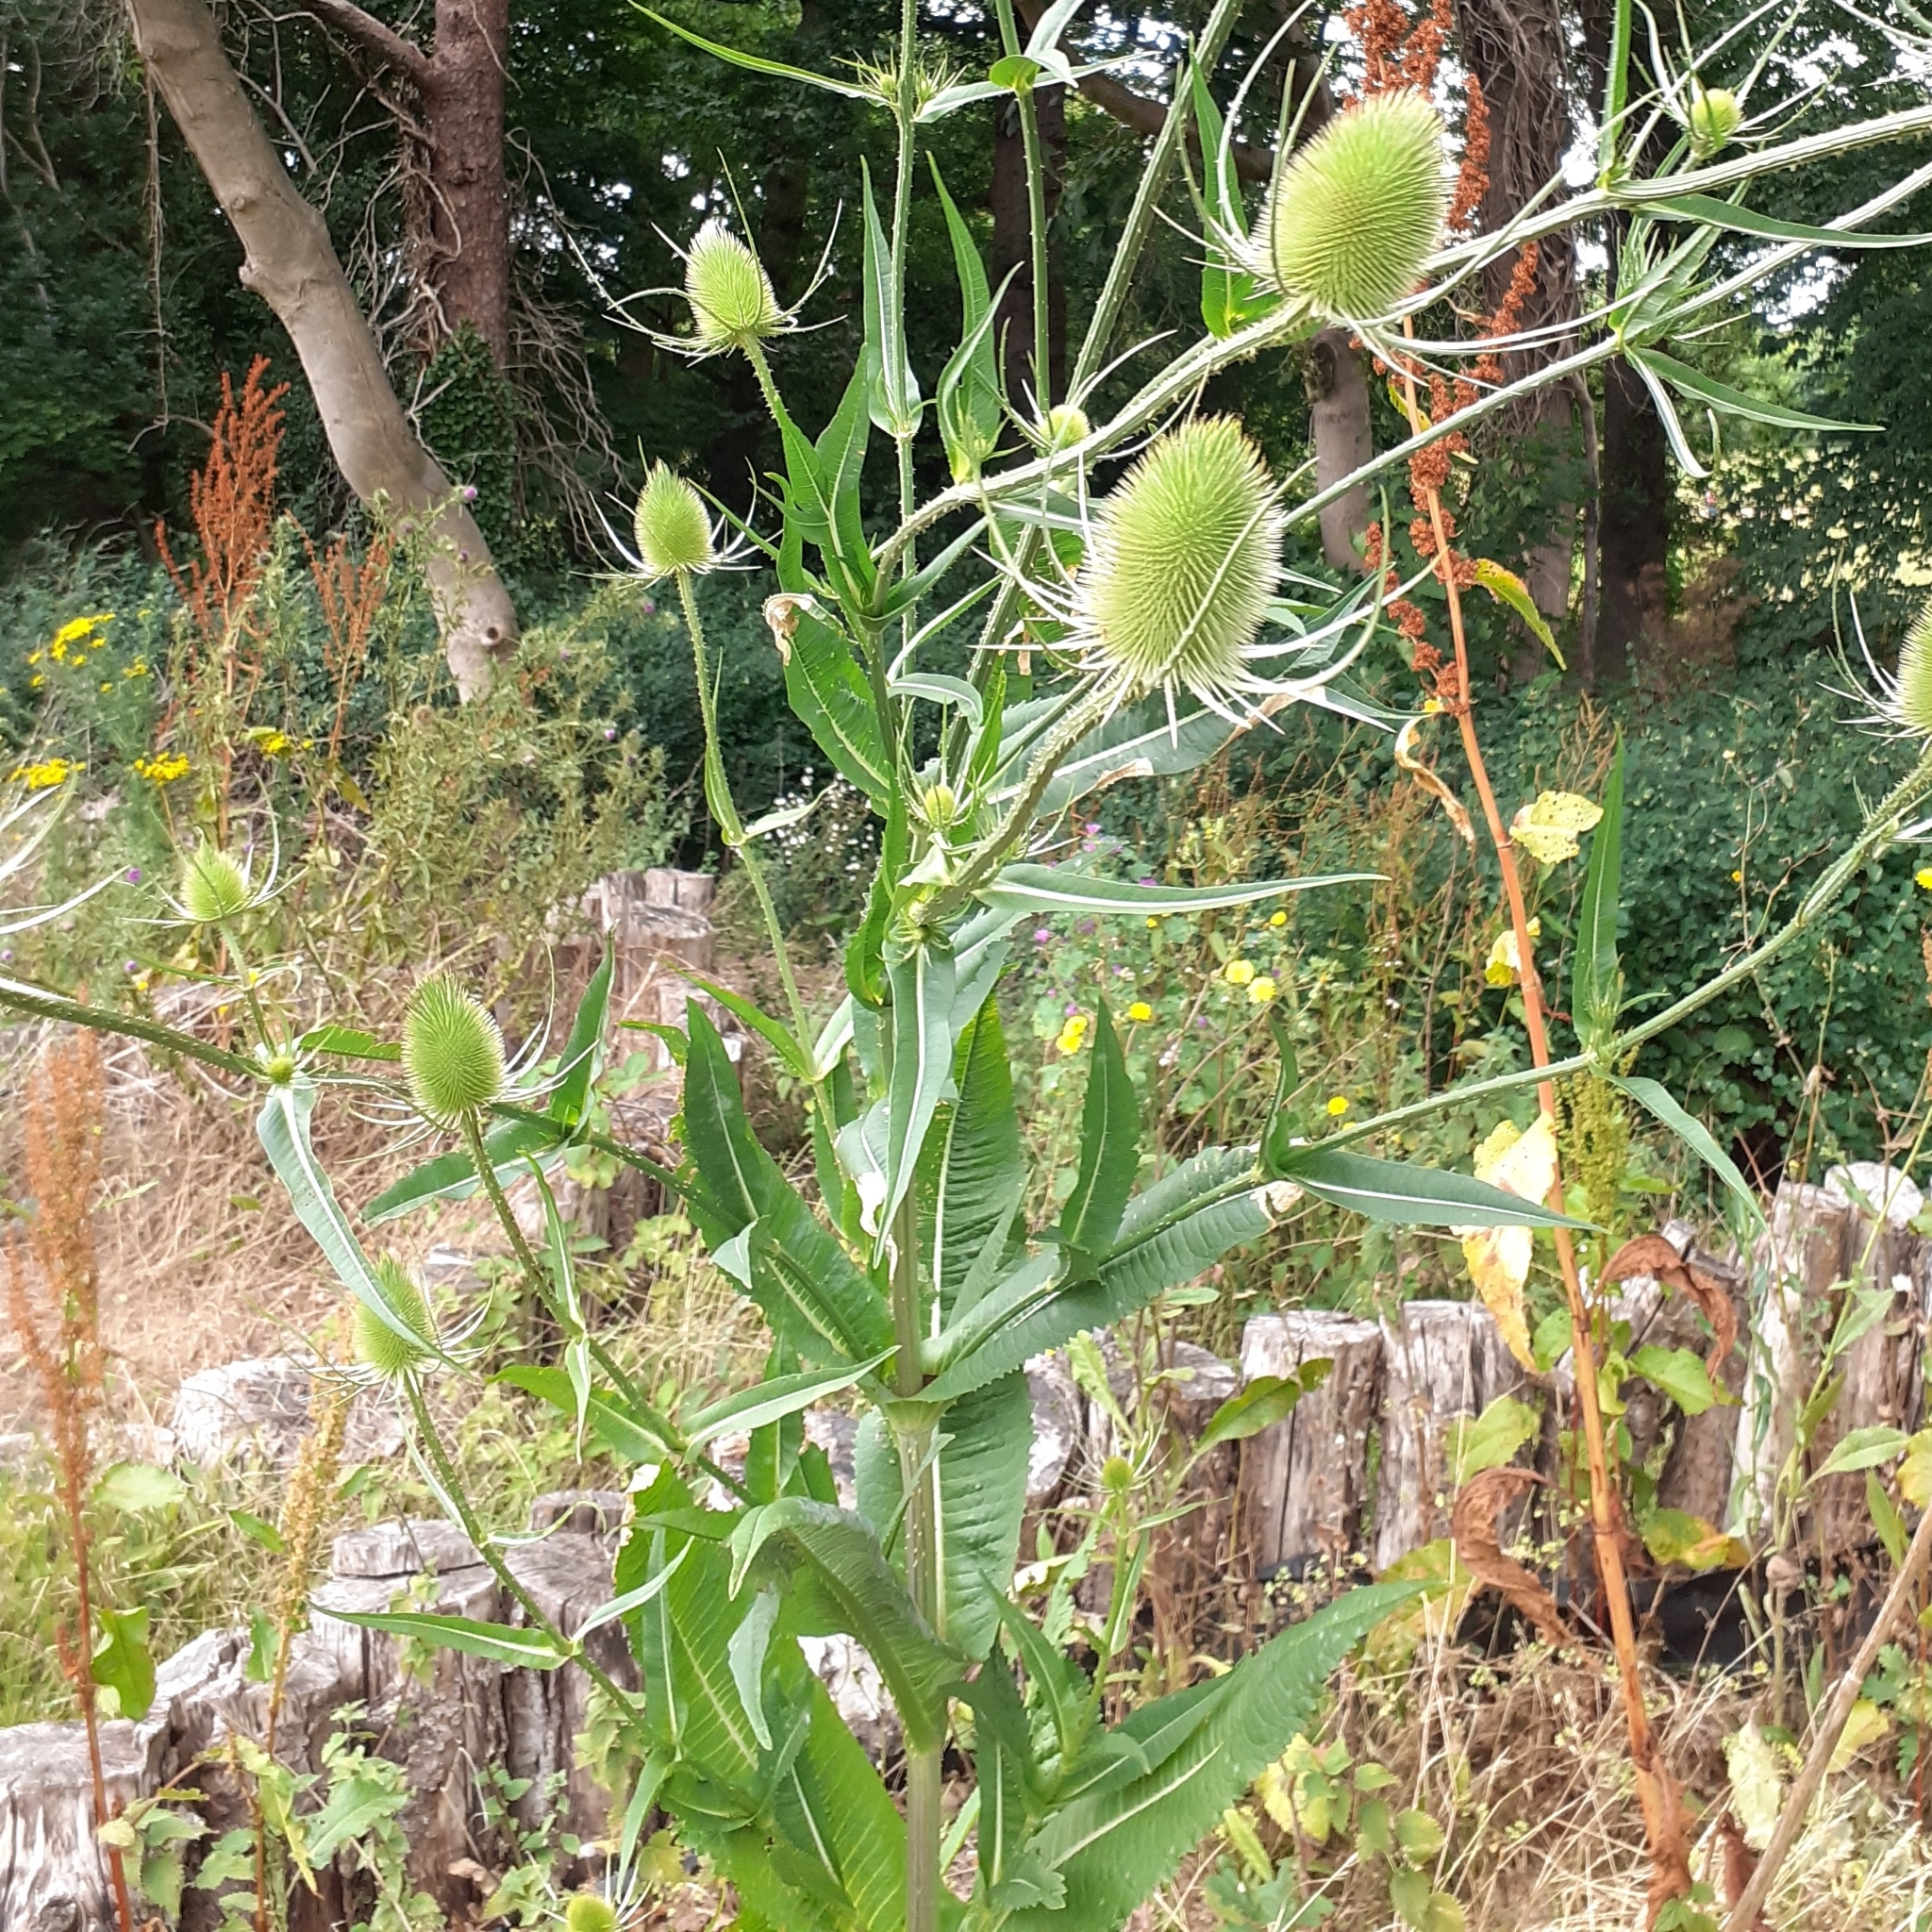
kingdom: Plantae
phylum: Tracheophyta
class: Magnoliopsida
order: Dipsacales
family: Caprifoliaceae
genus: Dipsacus
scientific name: Dipsacus fullonum
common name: Teasel
